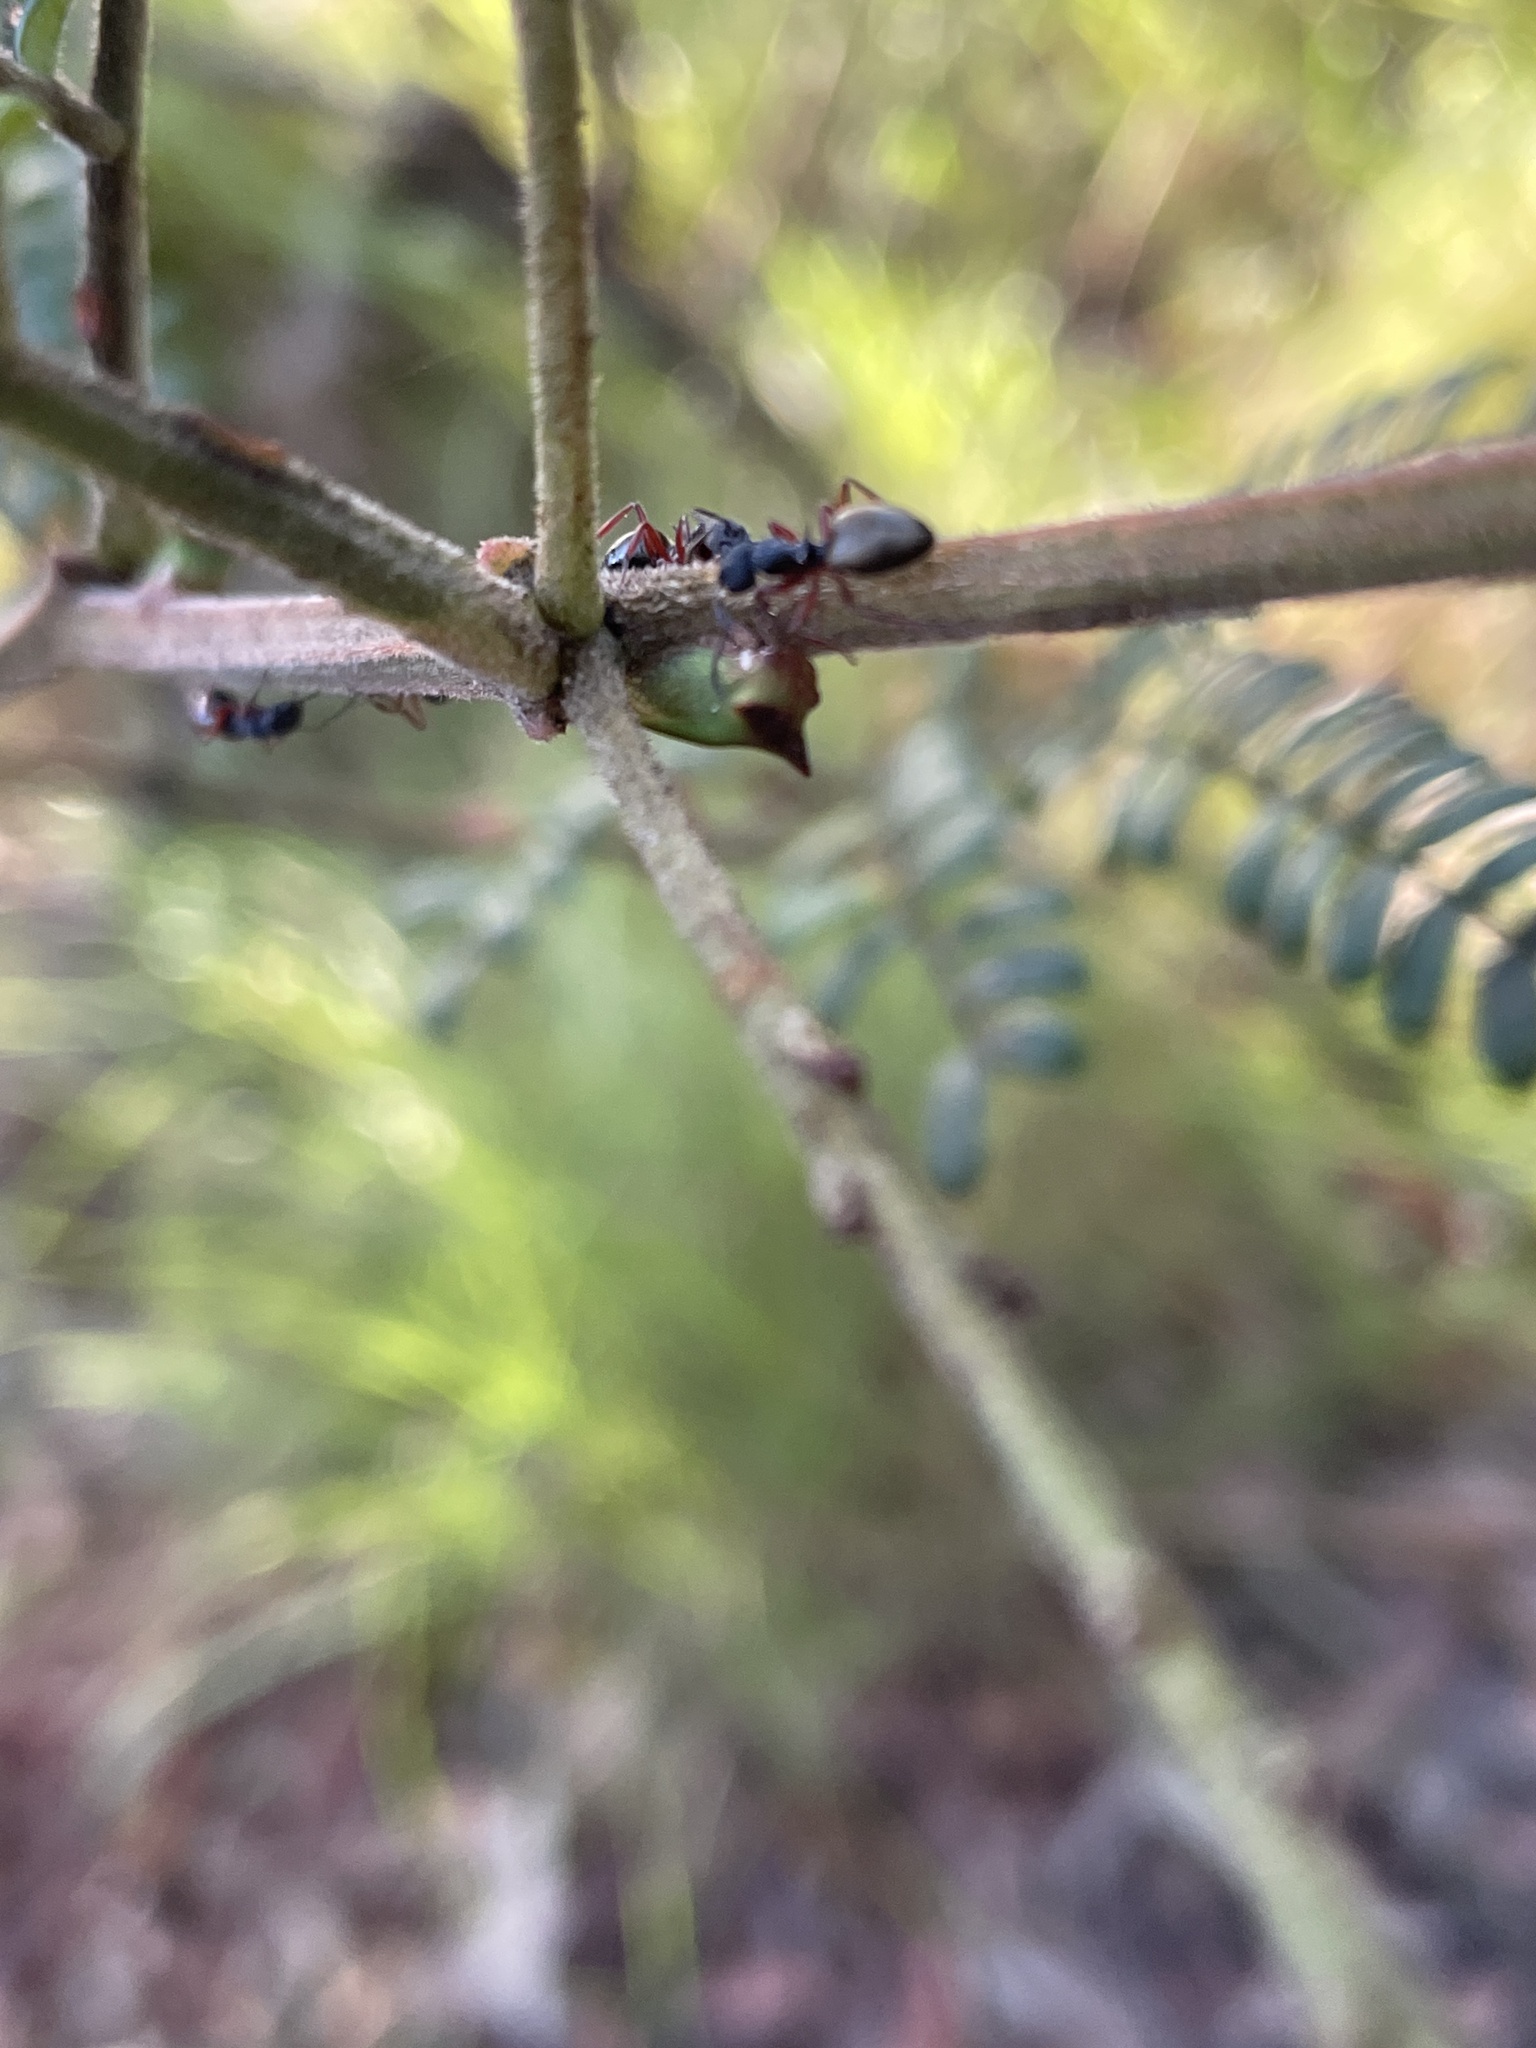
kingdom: Animalia
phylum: Arthropoda
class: Insecta
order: Hemiptera
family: Membracidae
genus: Sextius
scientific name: Sextius virescens
